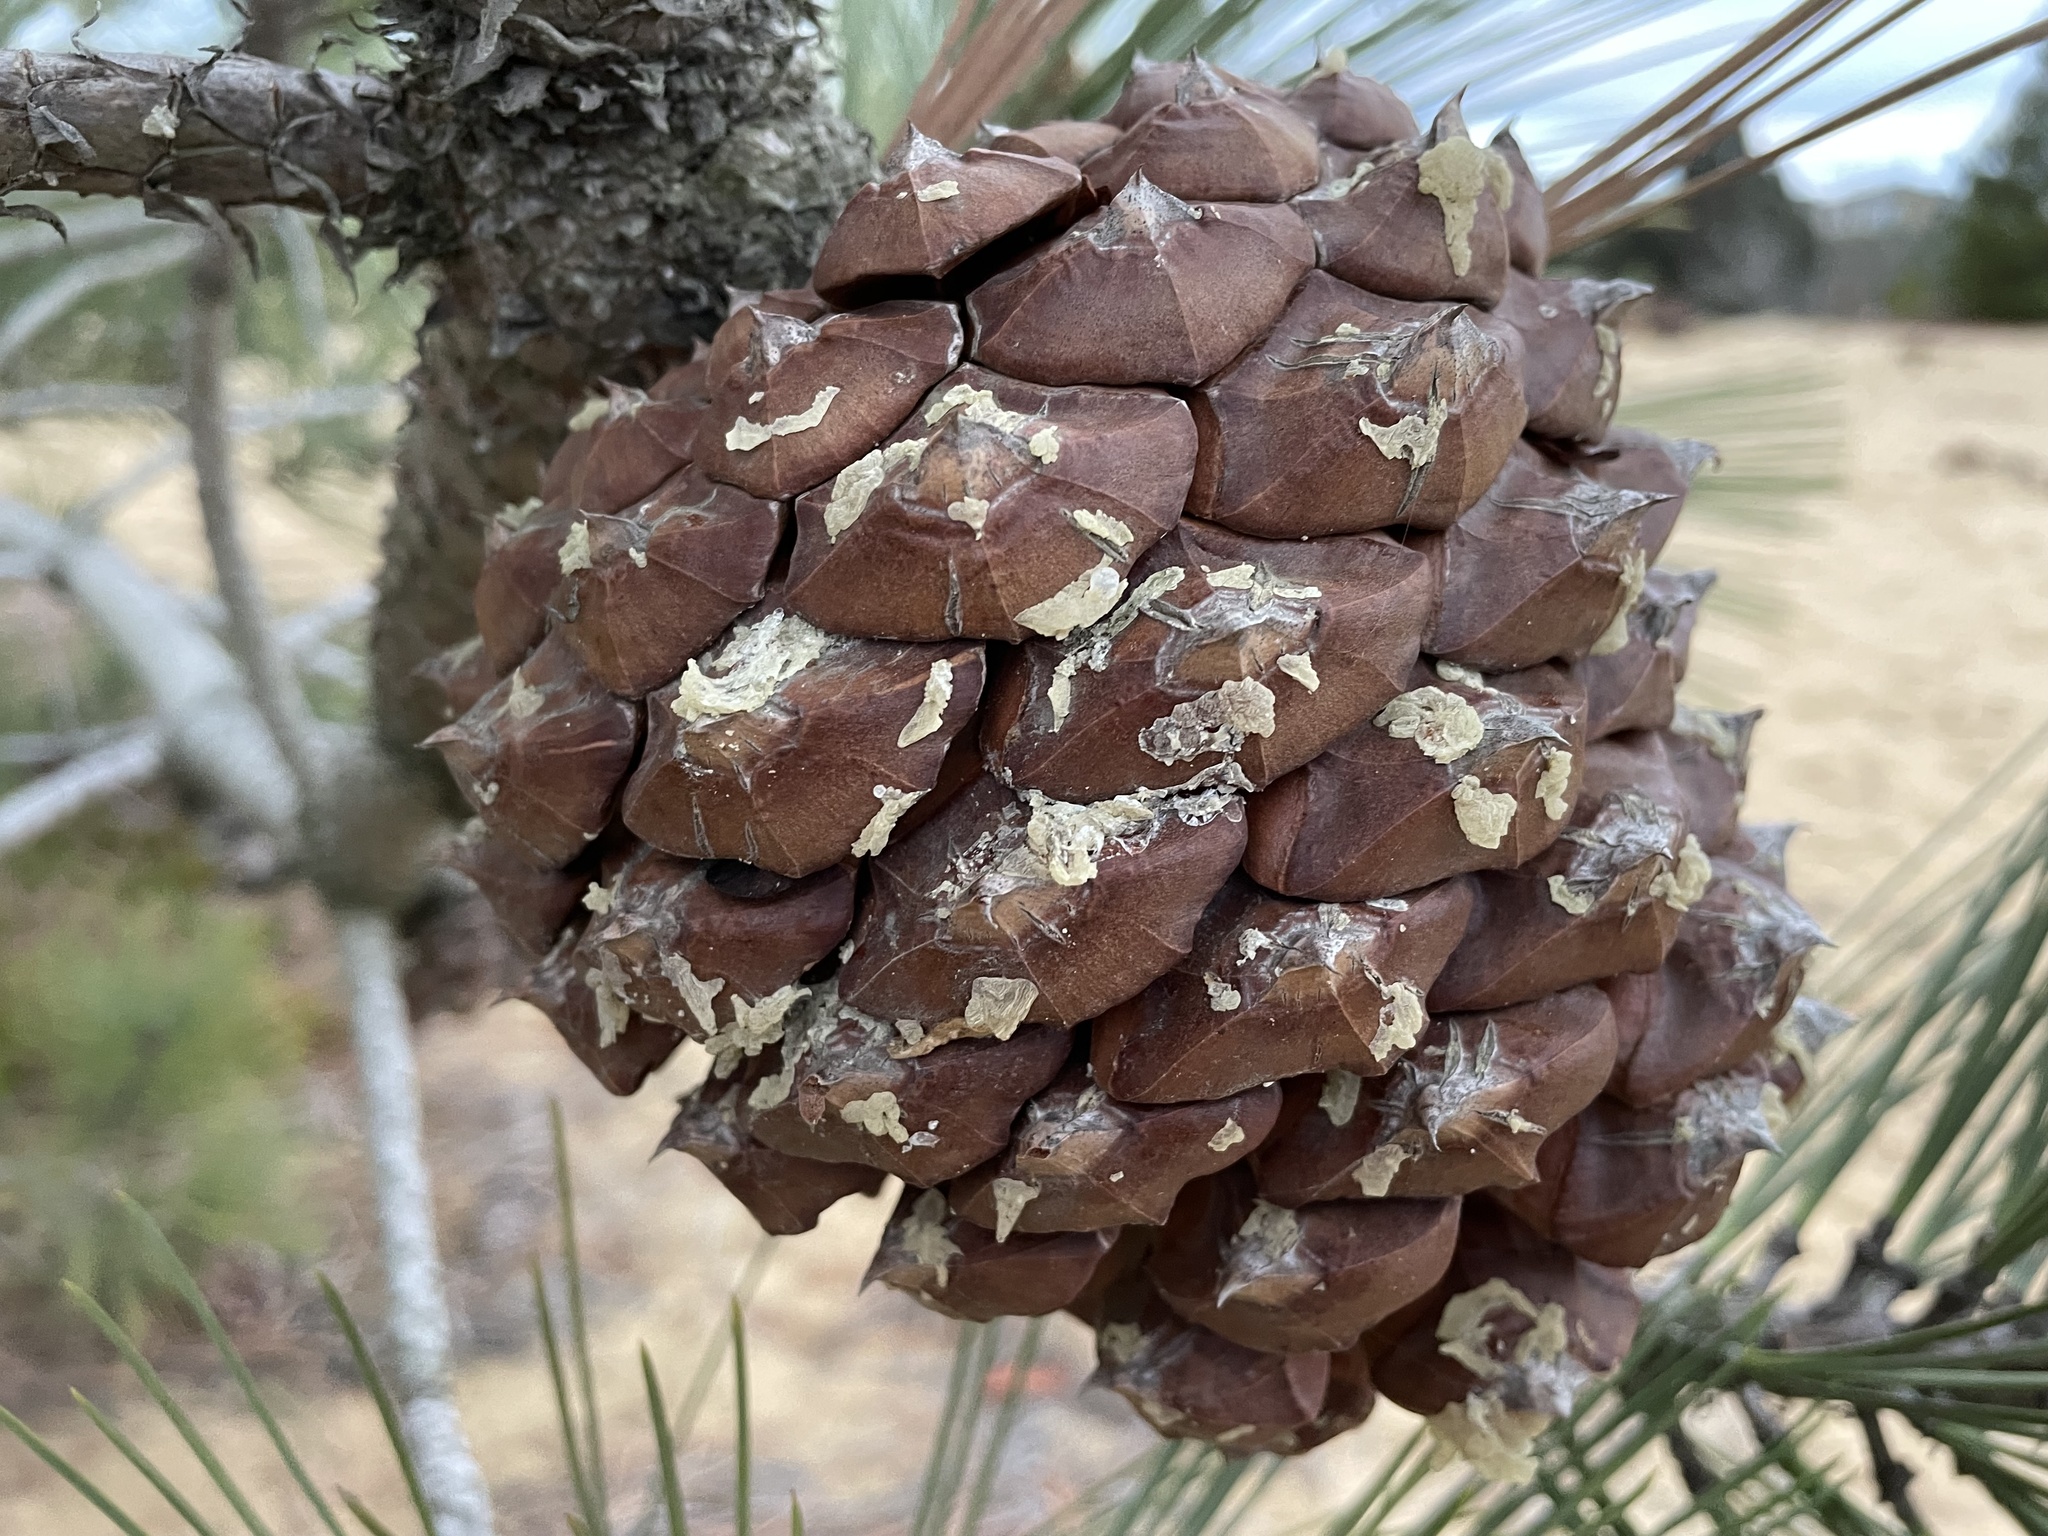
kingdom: Plantae
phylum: Tracheophyta
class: Pinopsida
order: Pinales
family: Pinaceae
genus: Pinus
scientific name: Pinus torreyana
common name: Torrey pine
